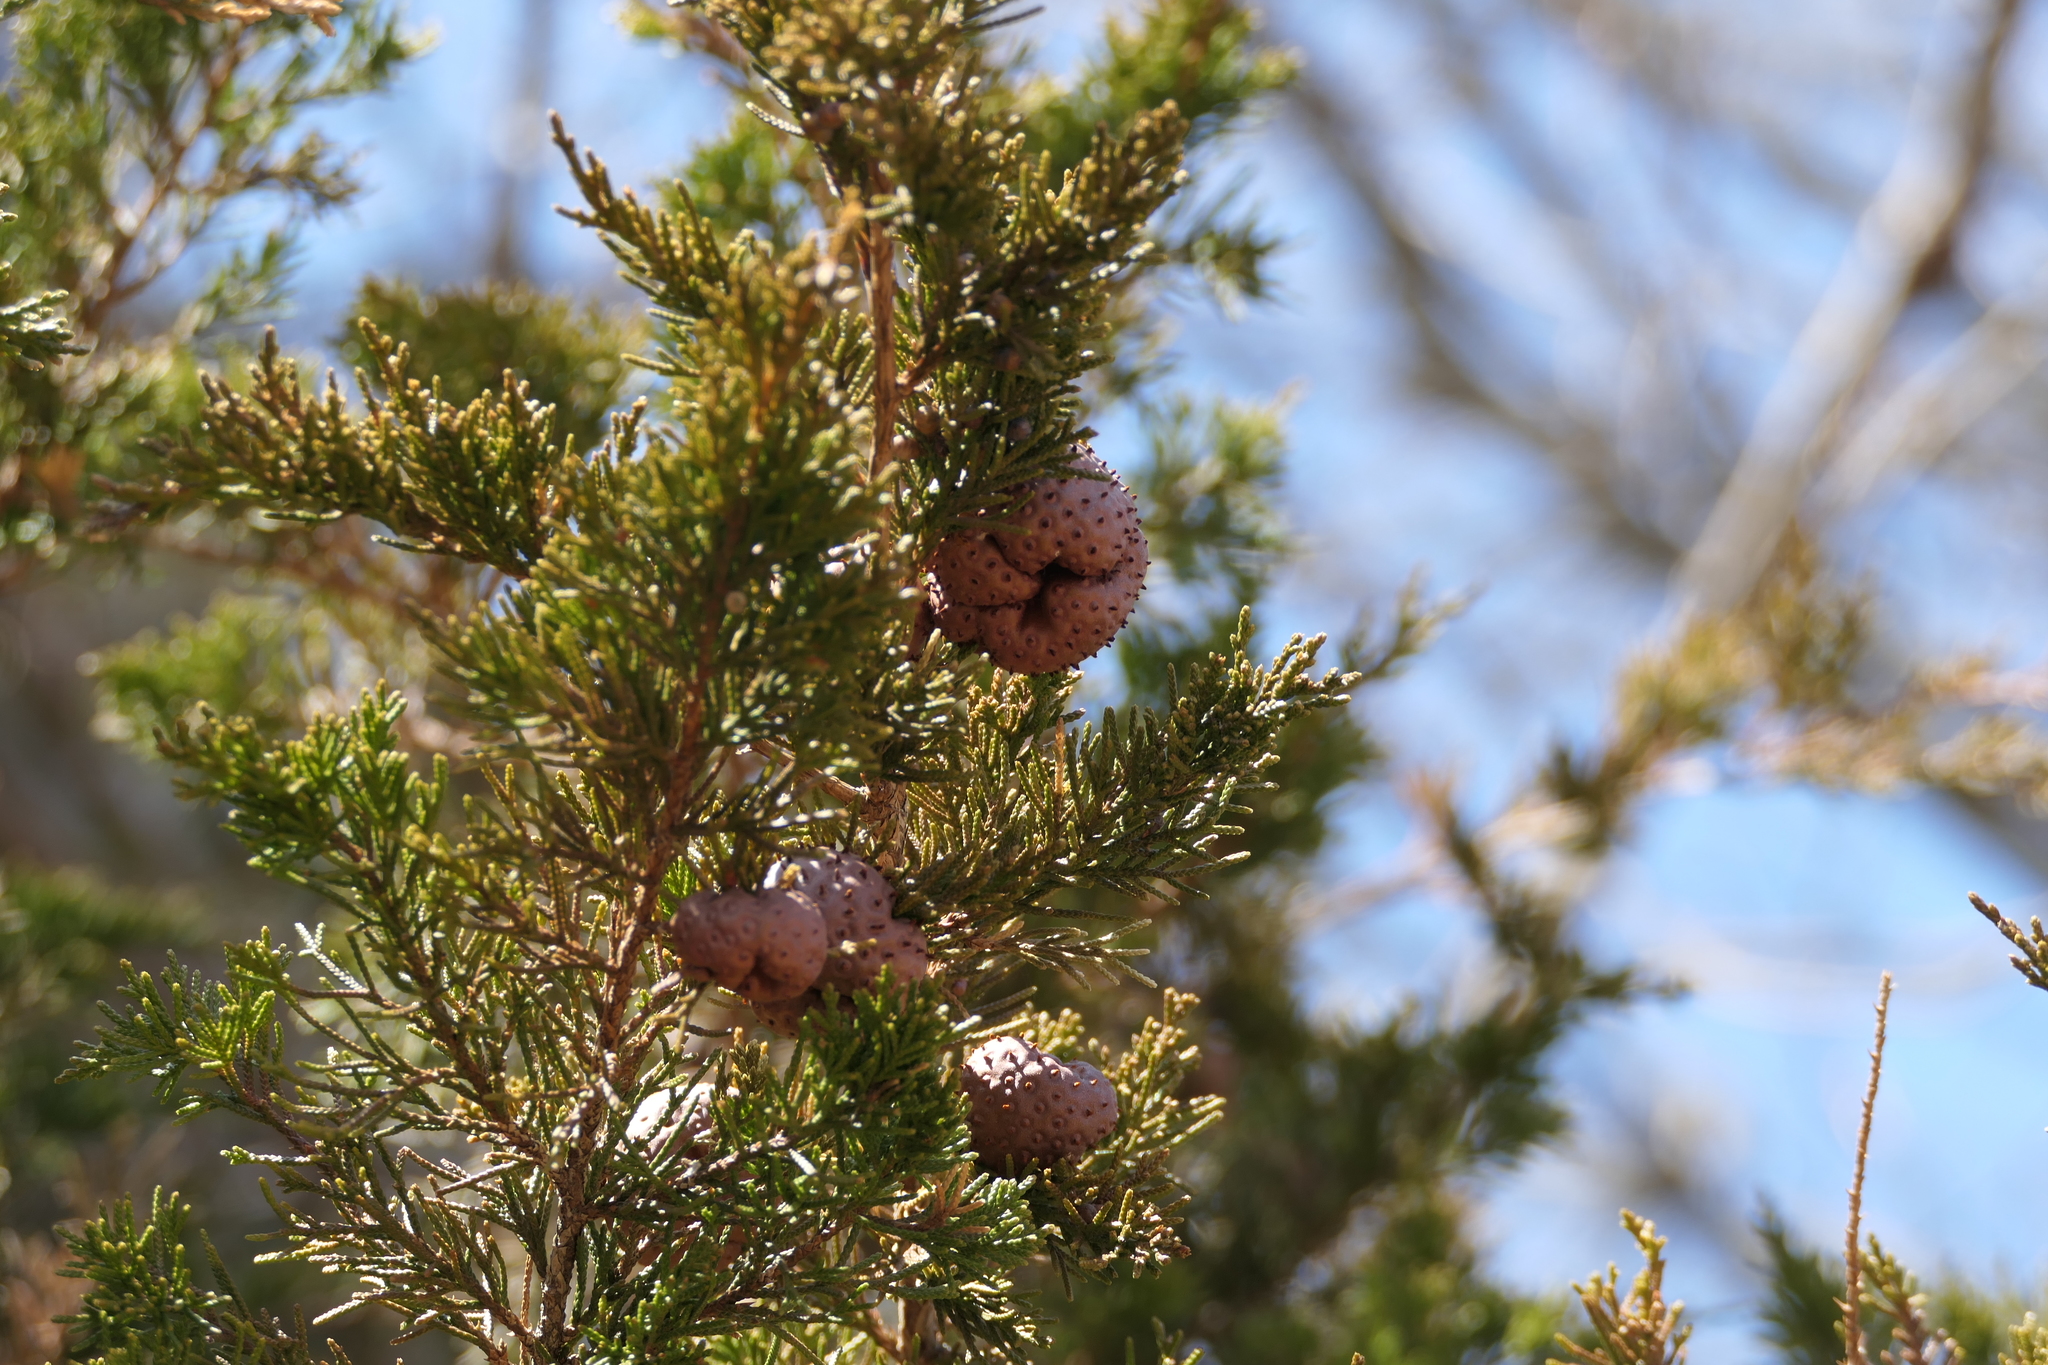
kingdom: Fungi
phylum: Basidiomycota
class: Pucciniomycetes
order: Pucciniales
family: Gymnosporangiaceae
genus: Gymnosporangium
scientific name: Gymnosporangium juniperi-virginianae
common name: Juniper-apple rust
